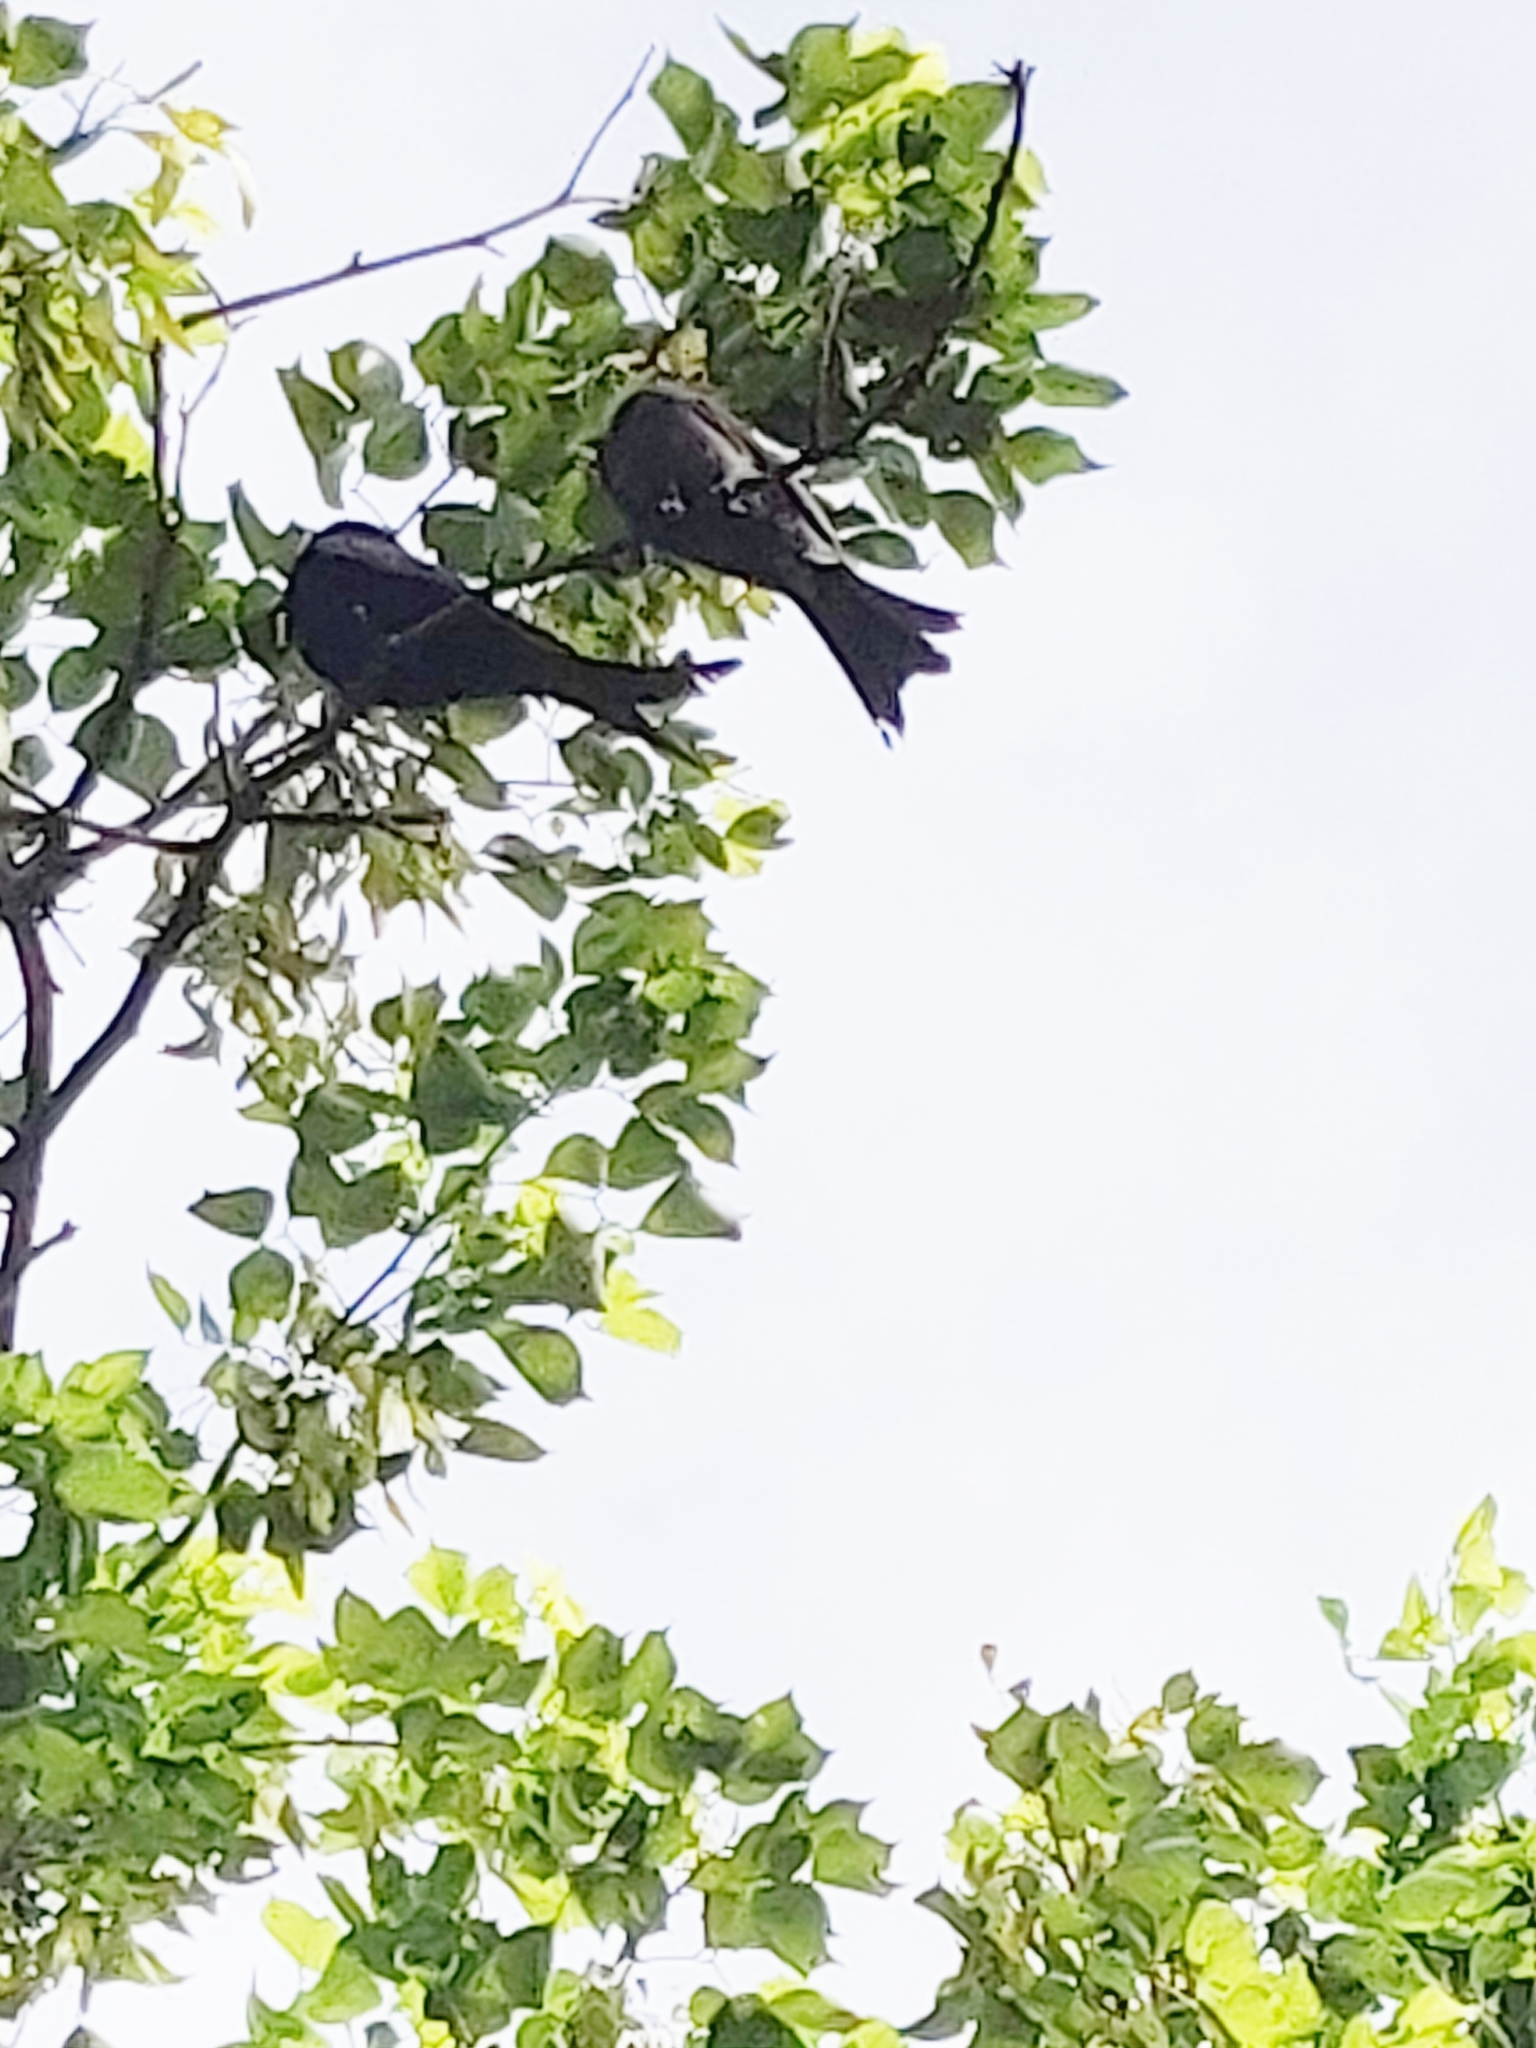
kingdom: Animalia
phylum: Chordata
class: Aves
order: Passeriformes
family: Dicruridae
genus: Dicrurus
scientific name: Dicrurus
